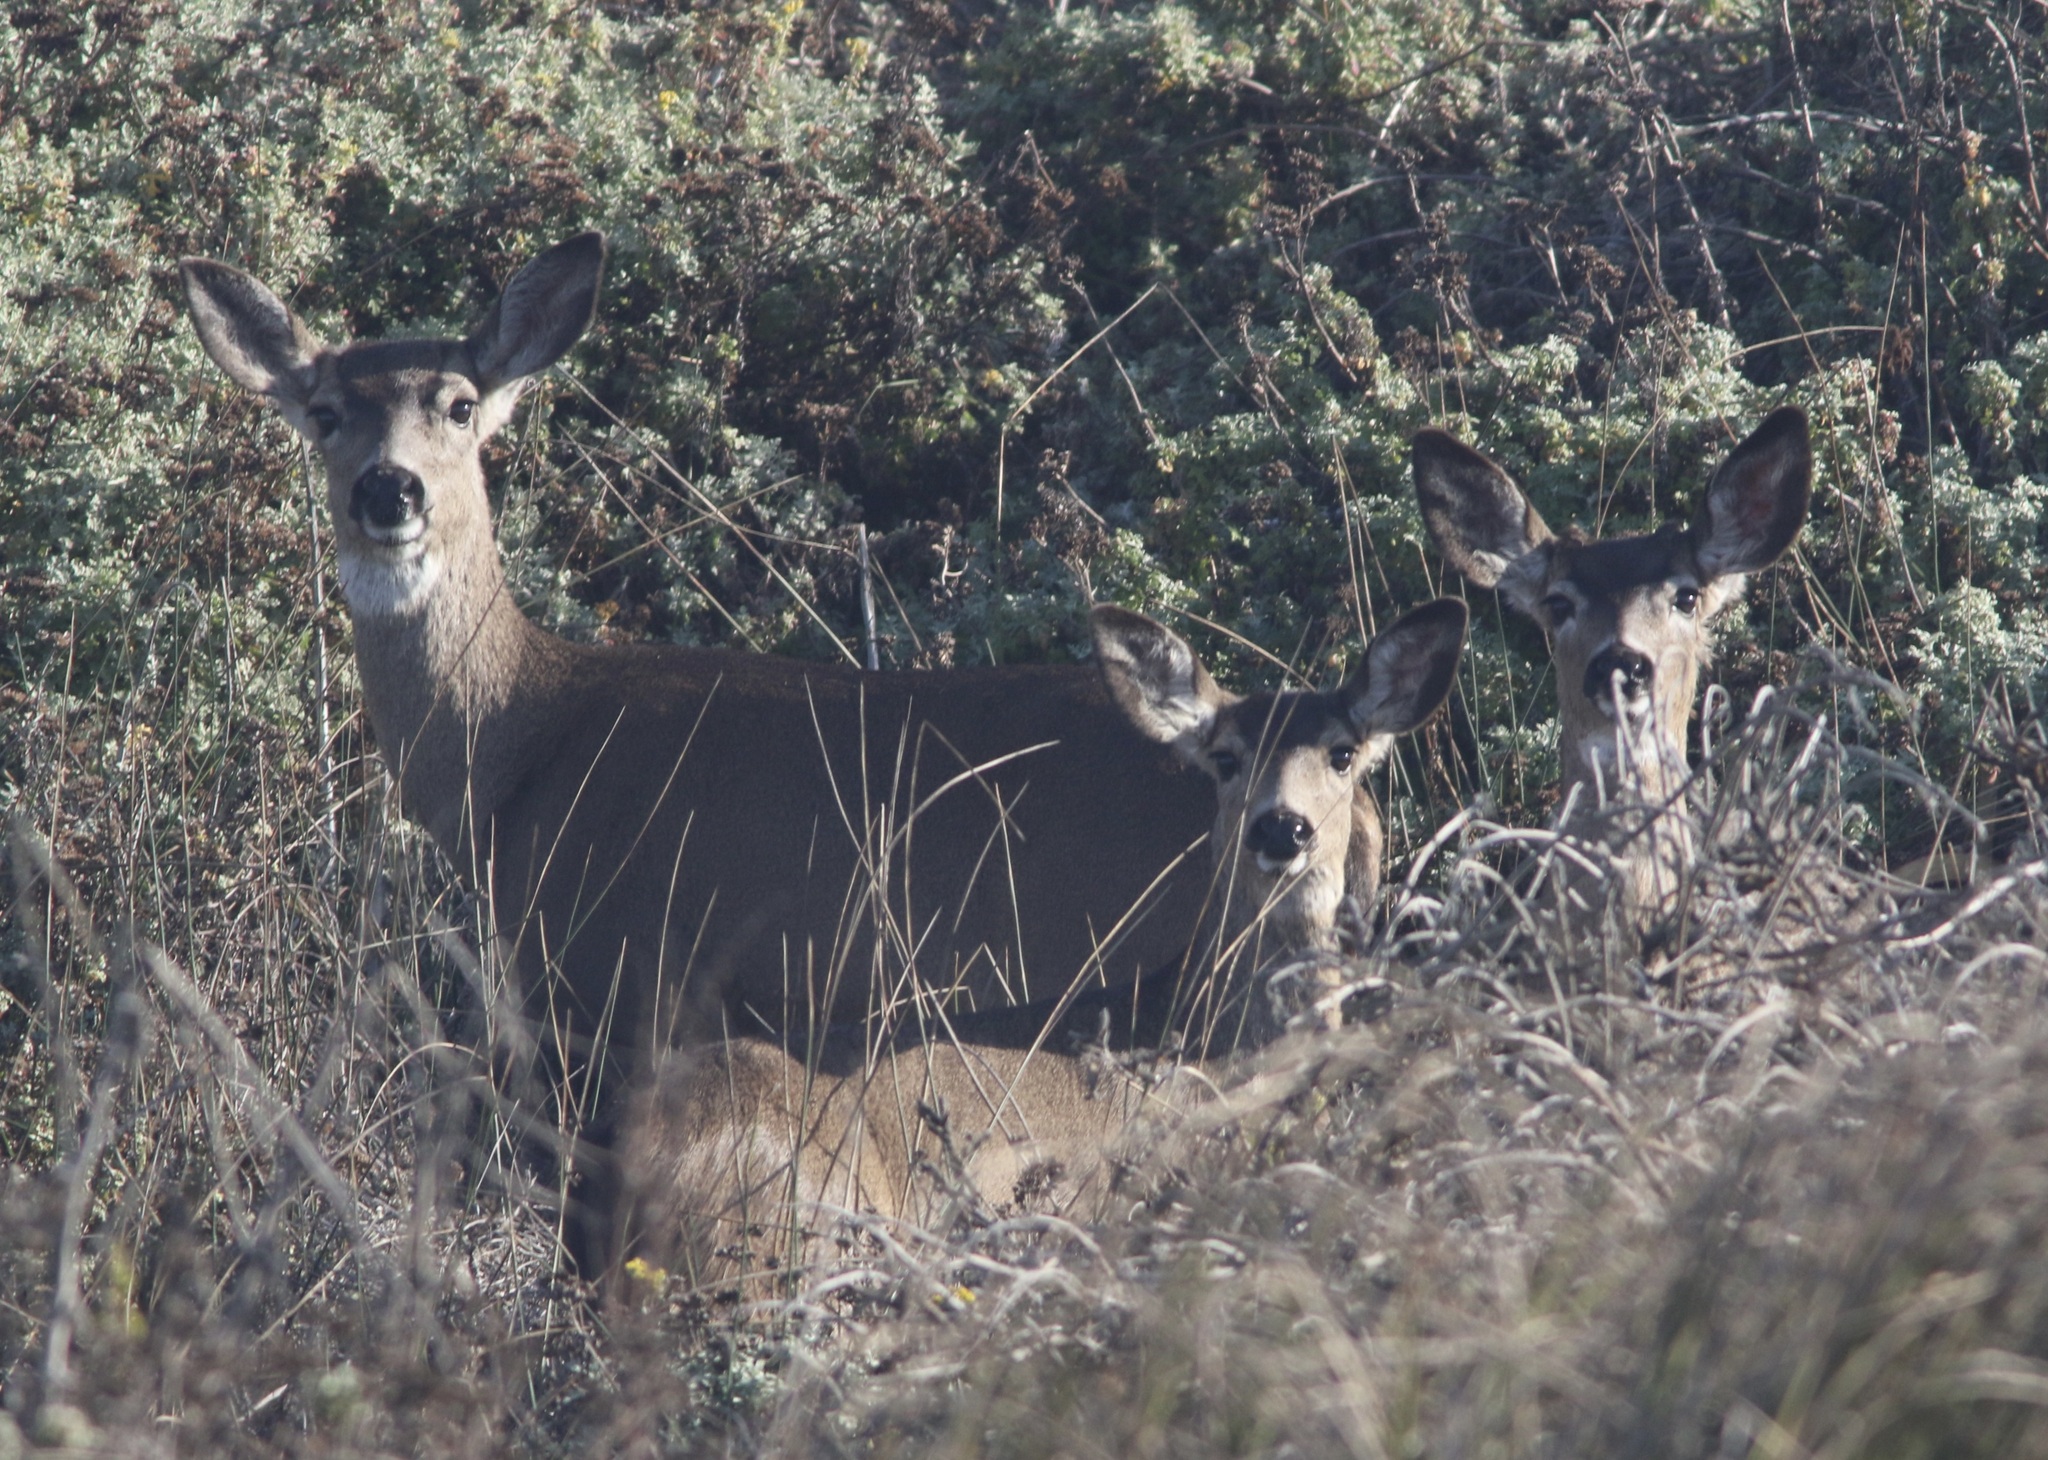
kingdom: Animalia
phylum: Chordata
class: Mammalia
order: Artiodactyla
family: Cervidae
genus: Odocoileus
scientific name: Odocoileus hemionus
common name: Mule deer
